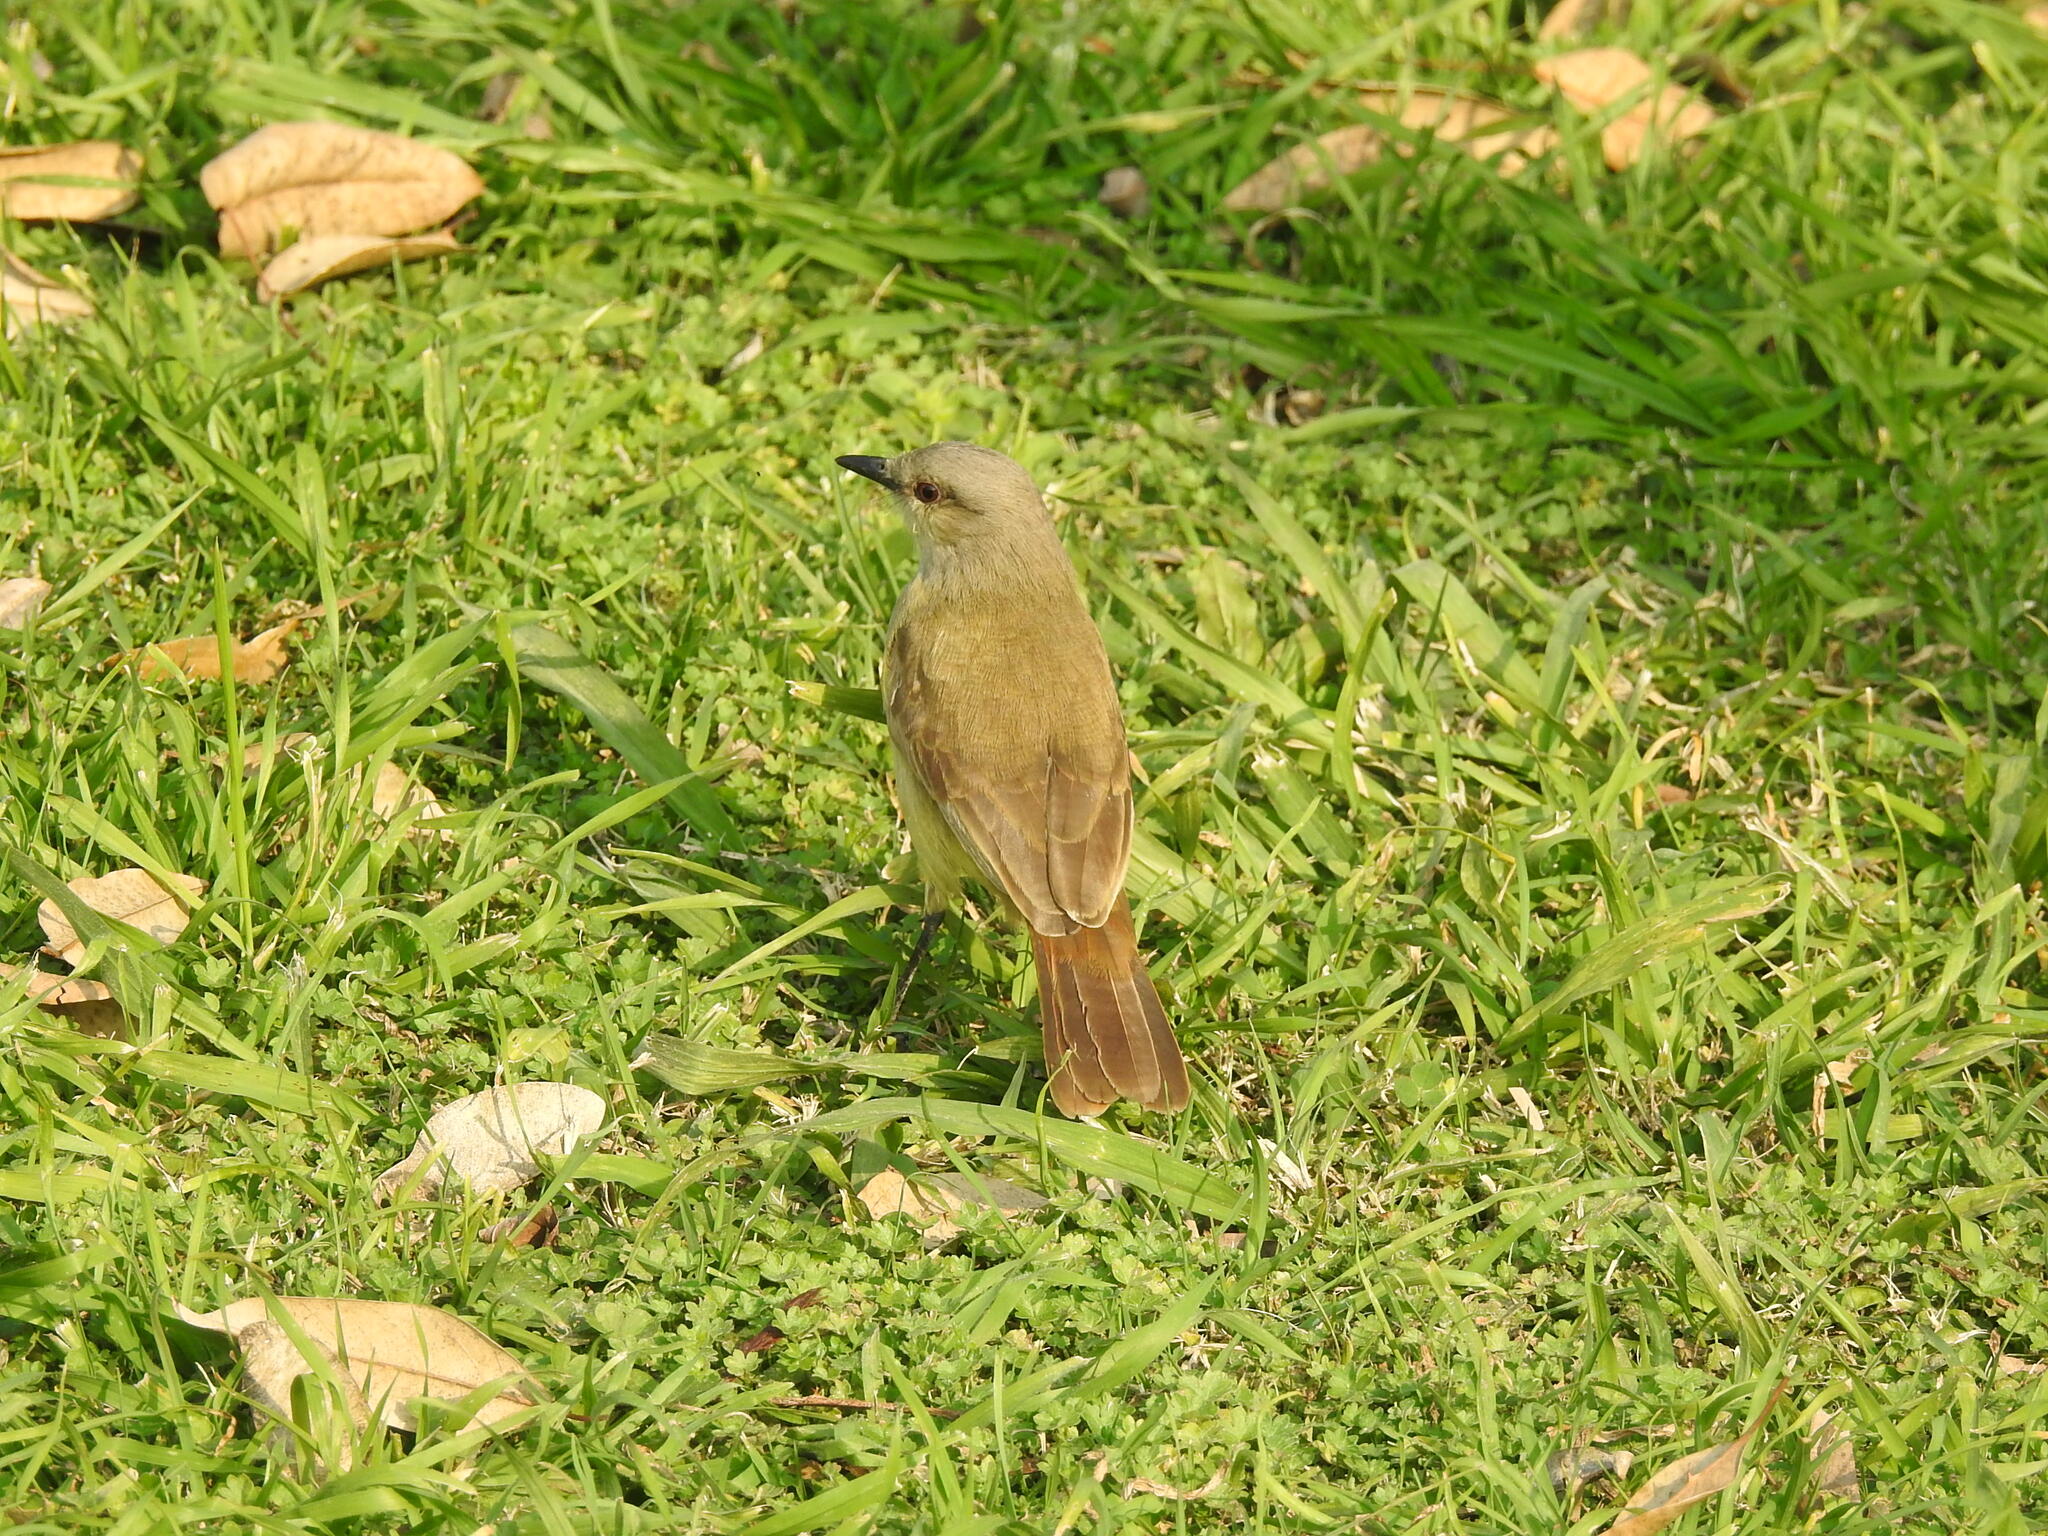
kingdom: Animalia
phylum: Chordata
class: Aves
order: Passeriformes
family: Tyrannidae
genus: Machetornis
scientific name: Machetornis rixosa
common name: Cattle tyrant
